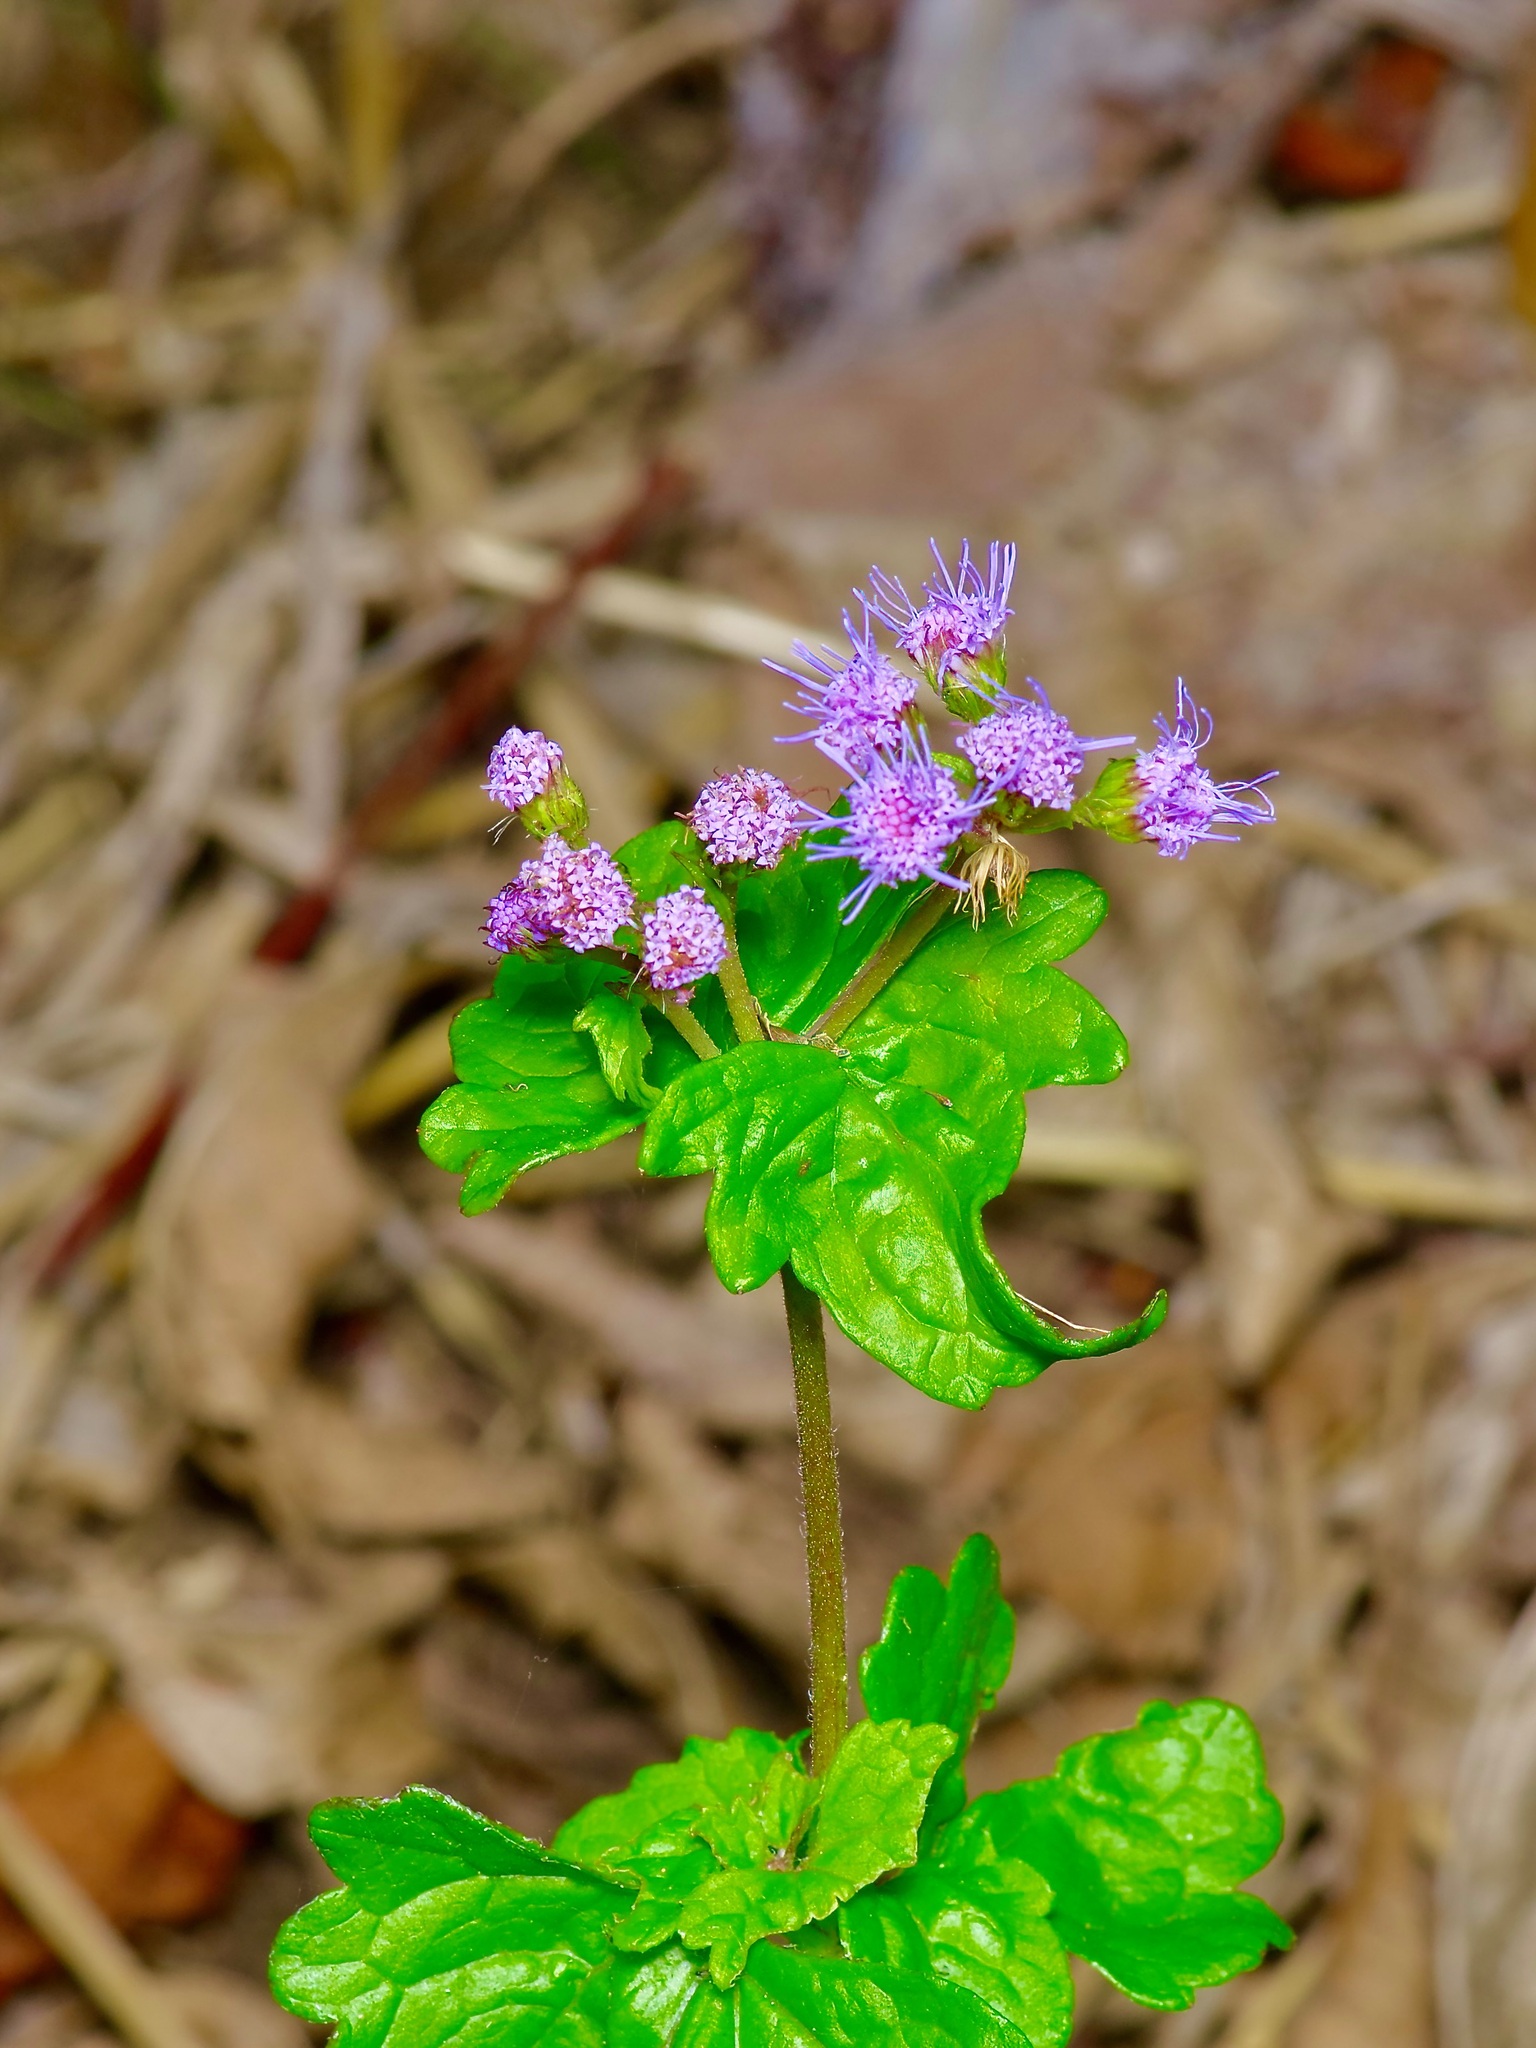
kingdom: Plantae
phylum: Tracheophyta
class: Magnoliopsida
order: Asterales
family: Asteraceae
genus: Conoclinium
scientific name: Conoclinium coelestinum
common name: Blue mistflower
